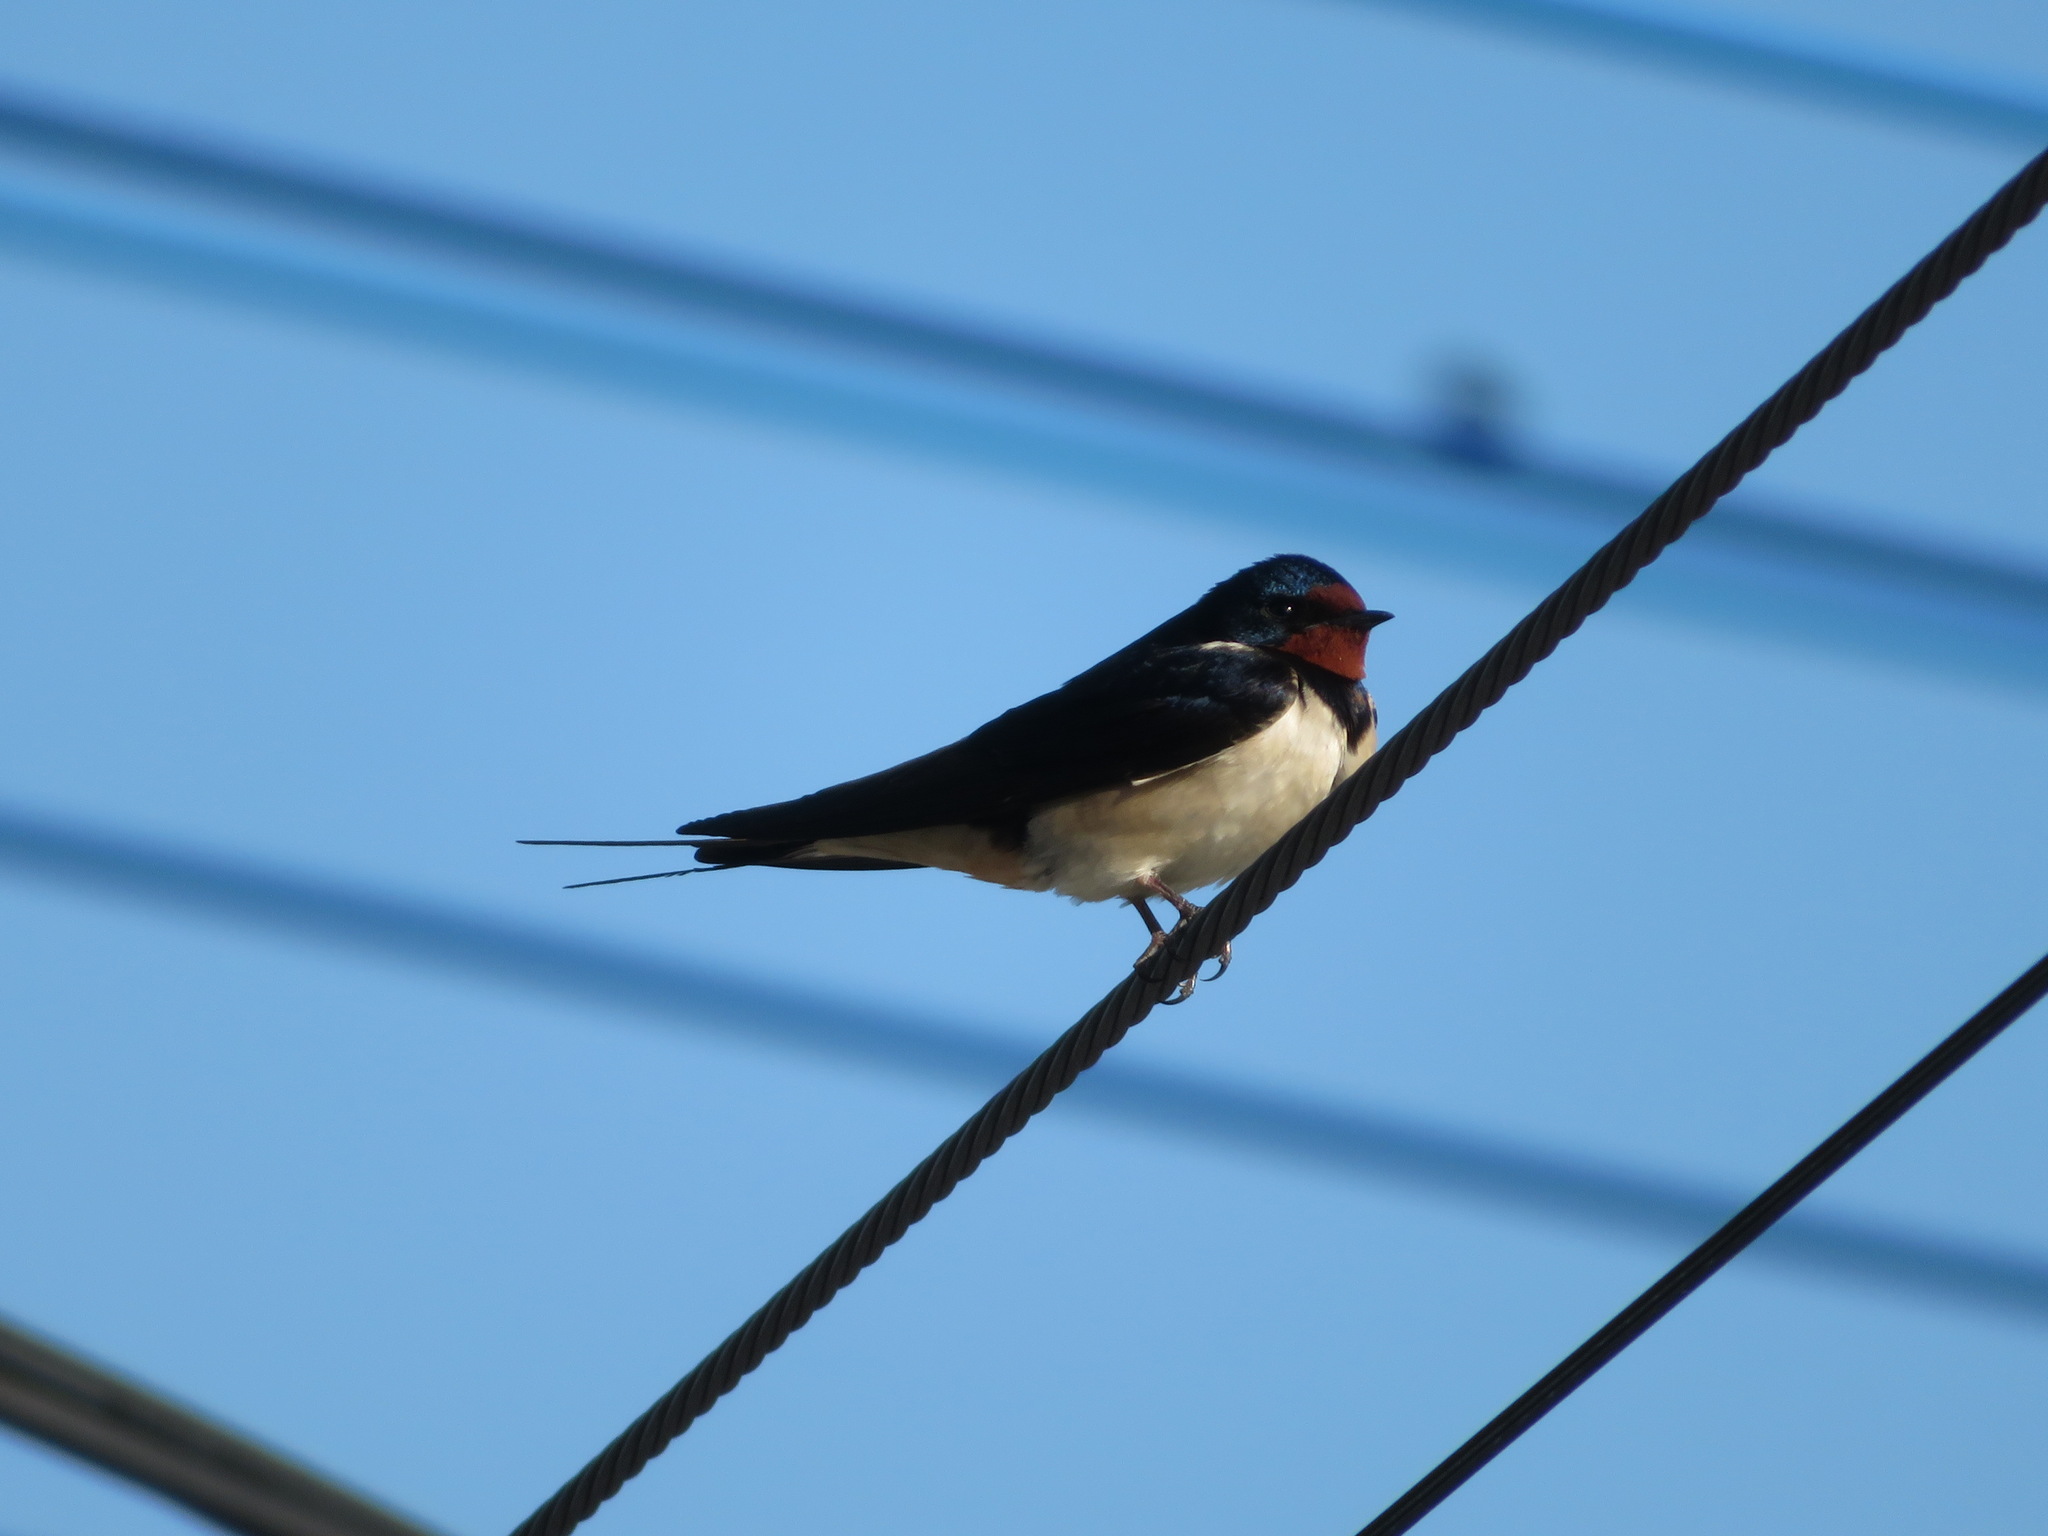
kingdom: Animalia
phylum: Chordata
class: Aves
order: Passeriformes
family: Hirundinidae
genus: Hirundo
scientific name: Hirundo rustica
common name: Barn swallow
